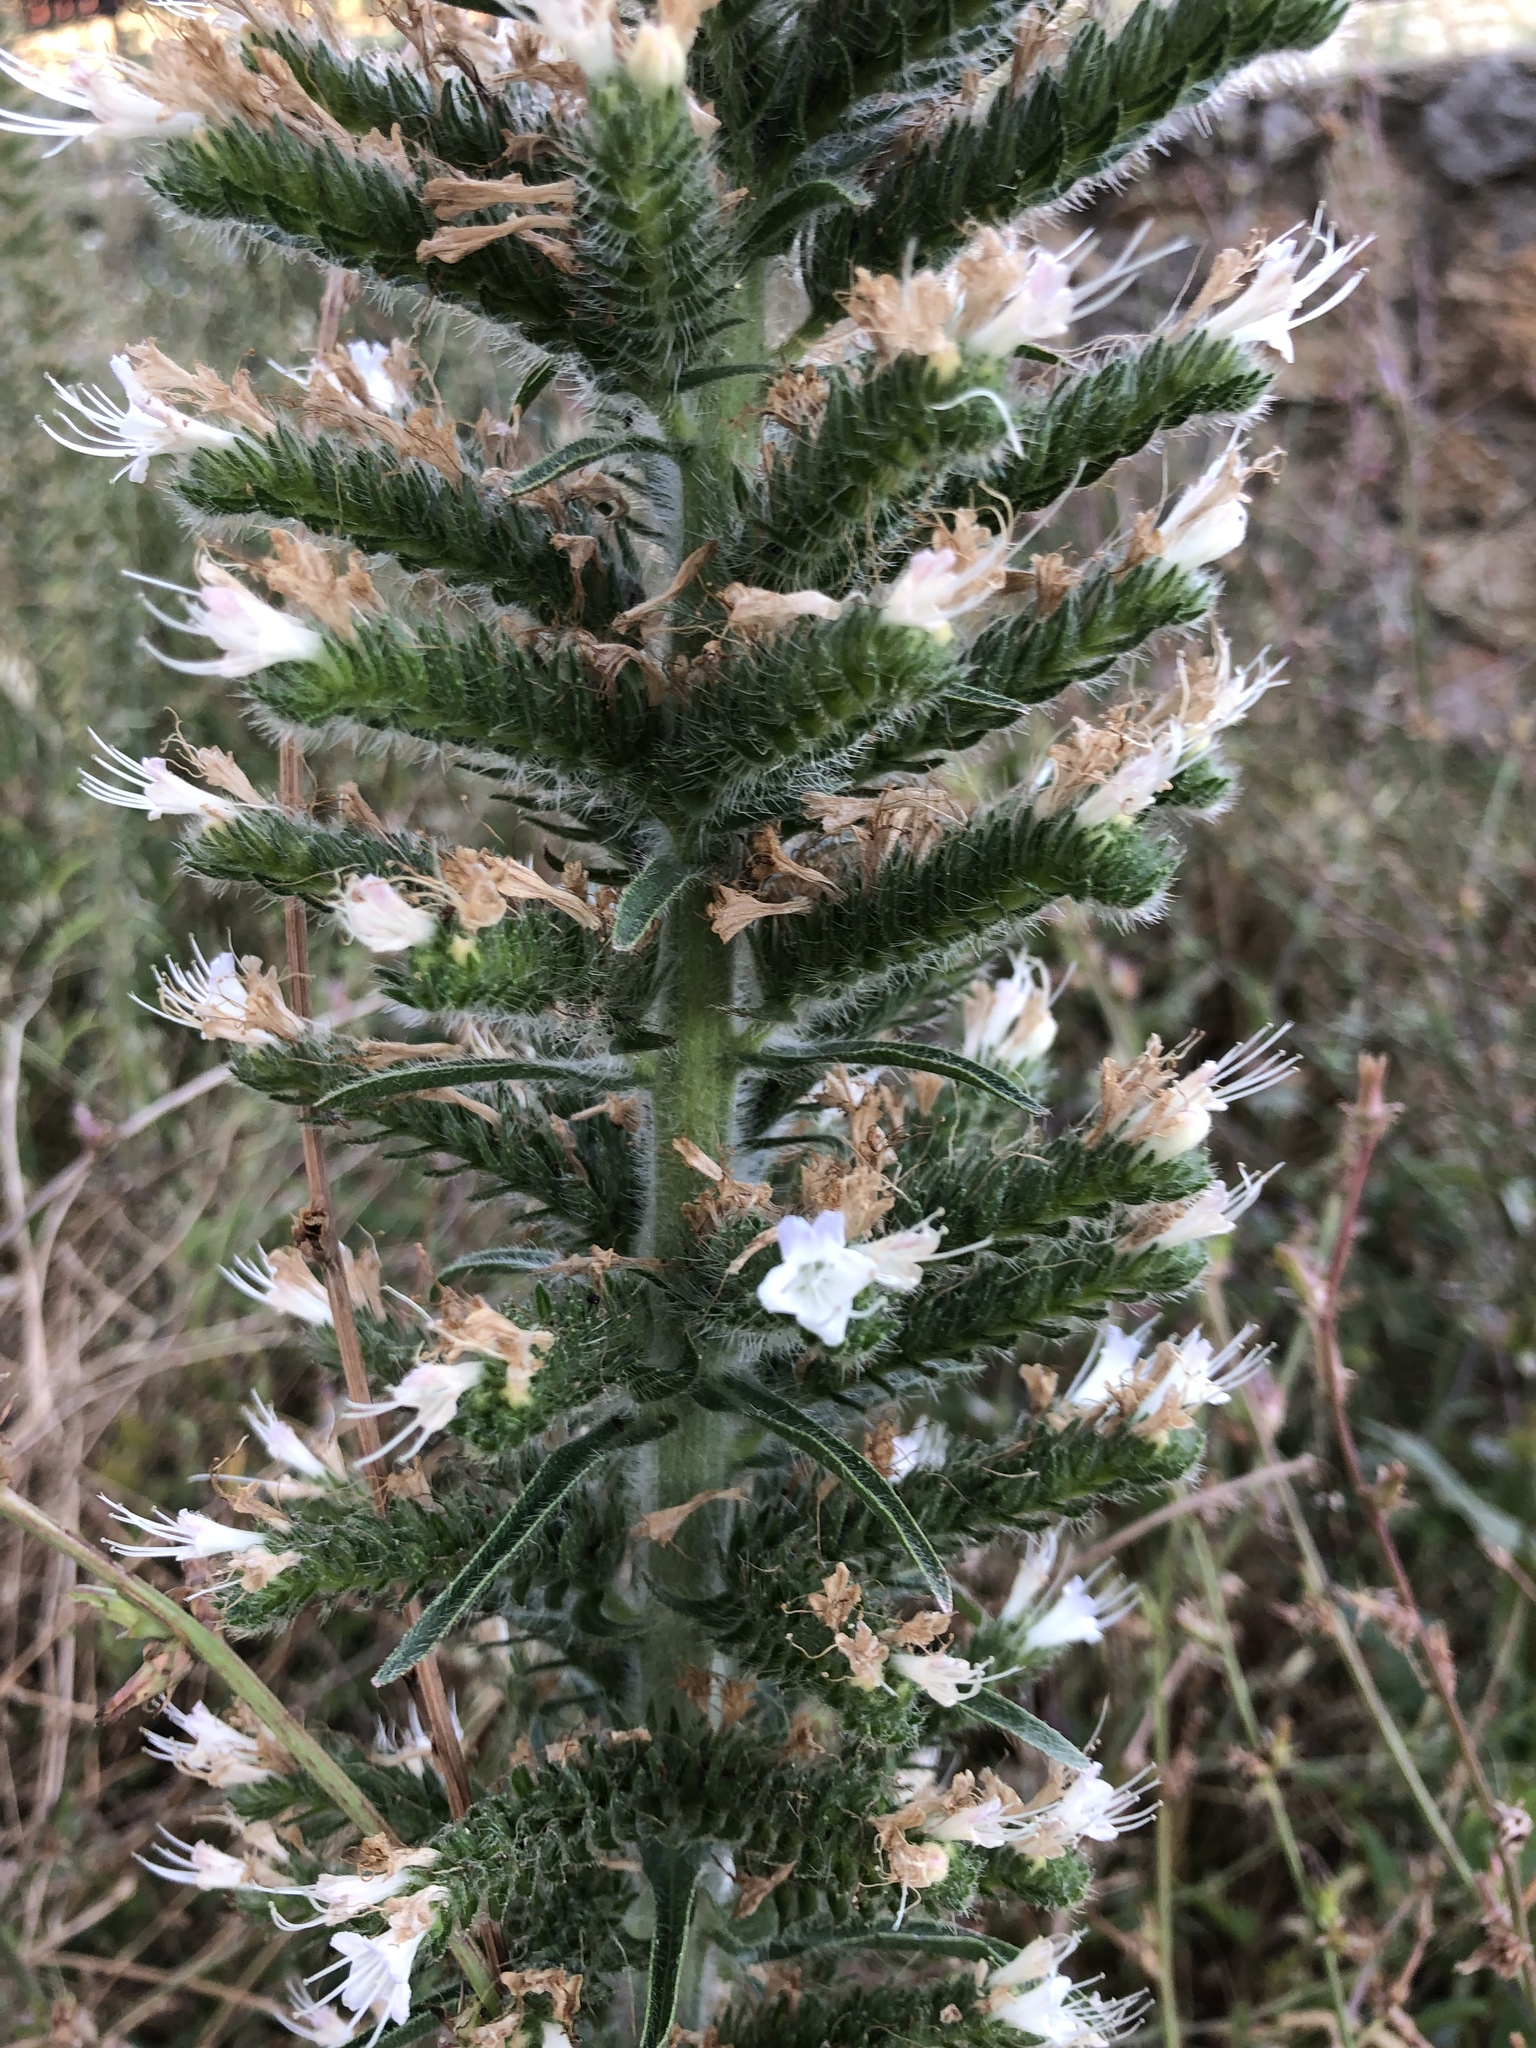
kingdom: Plantae
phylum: Tracheophyta
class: Magnoliopsida
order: Boraginales
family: Boraginaceae
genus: Echium
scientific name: Echium italicum
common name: Italian viper's bugloss
